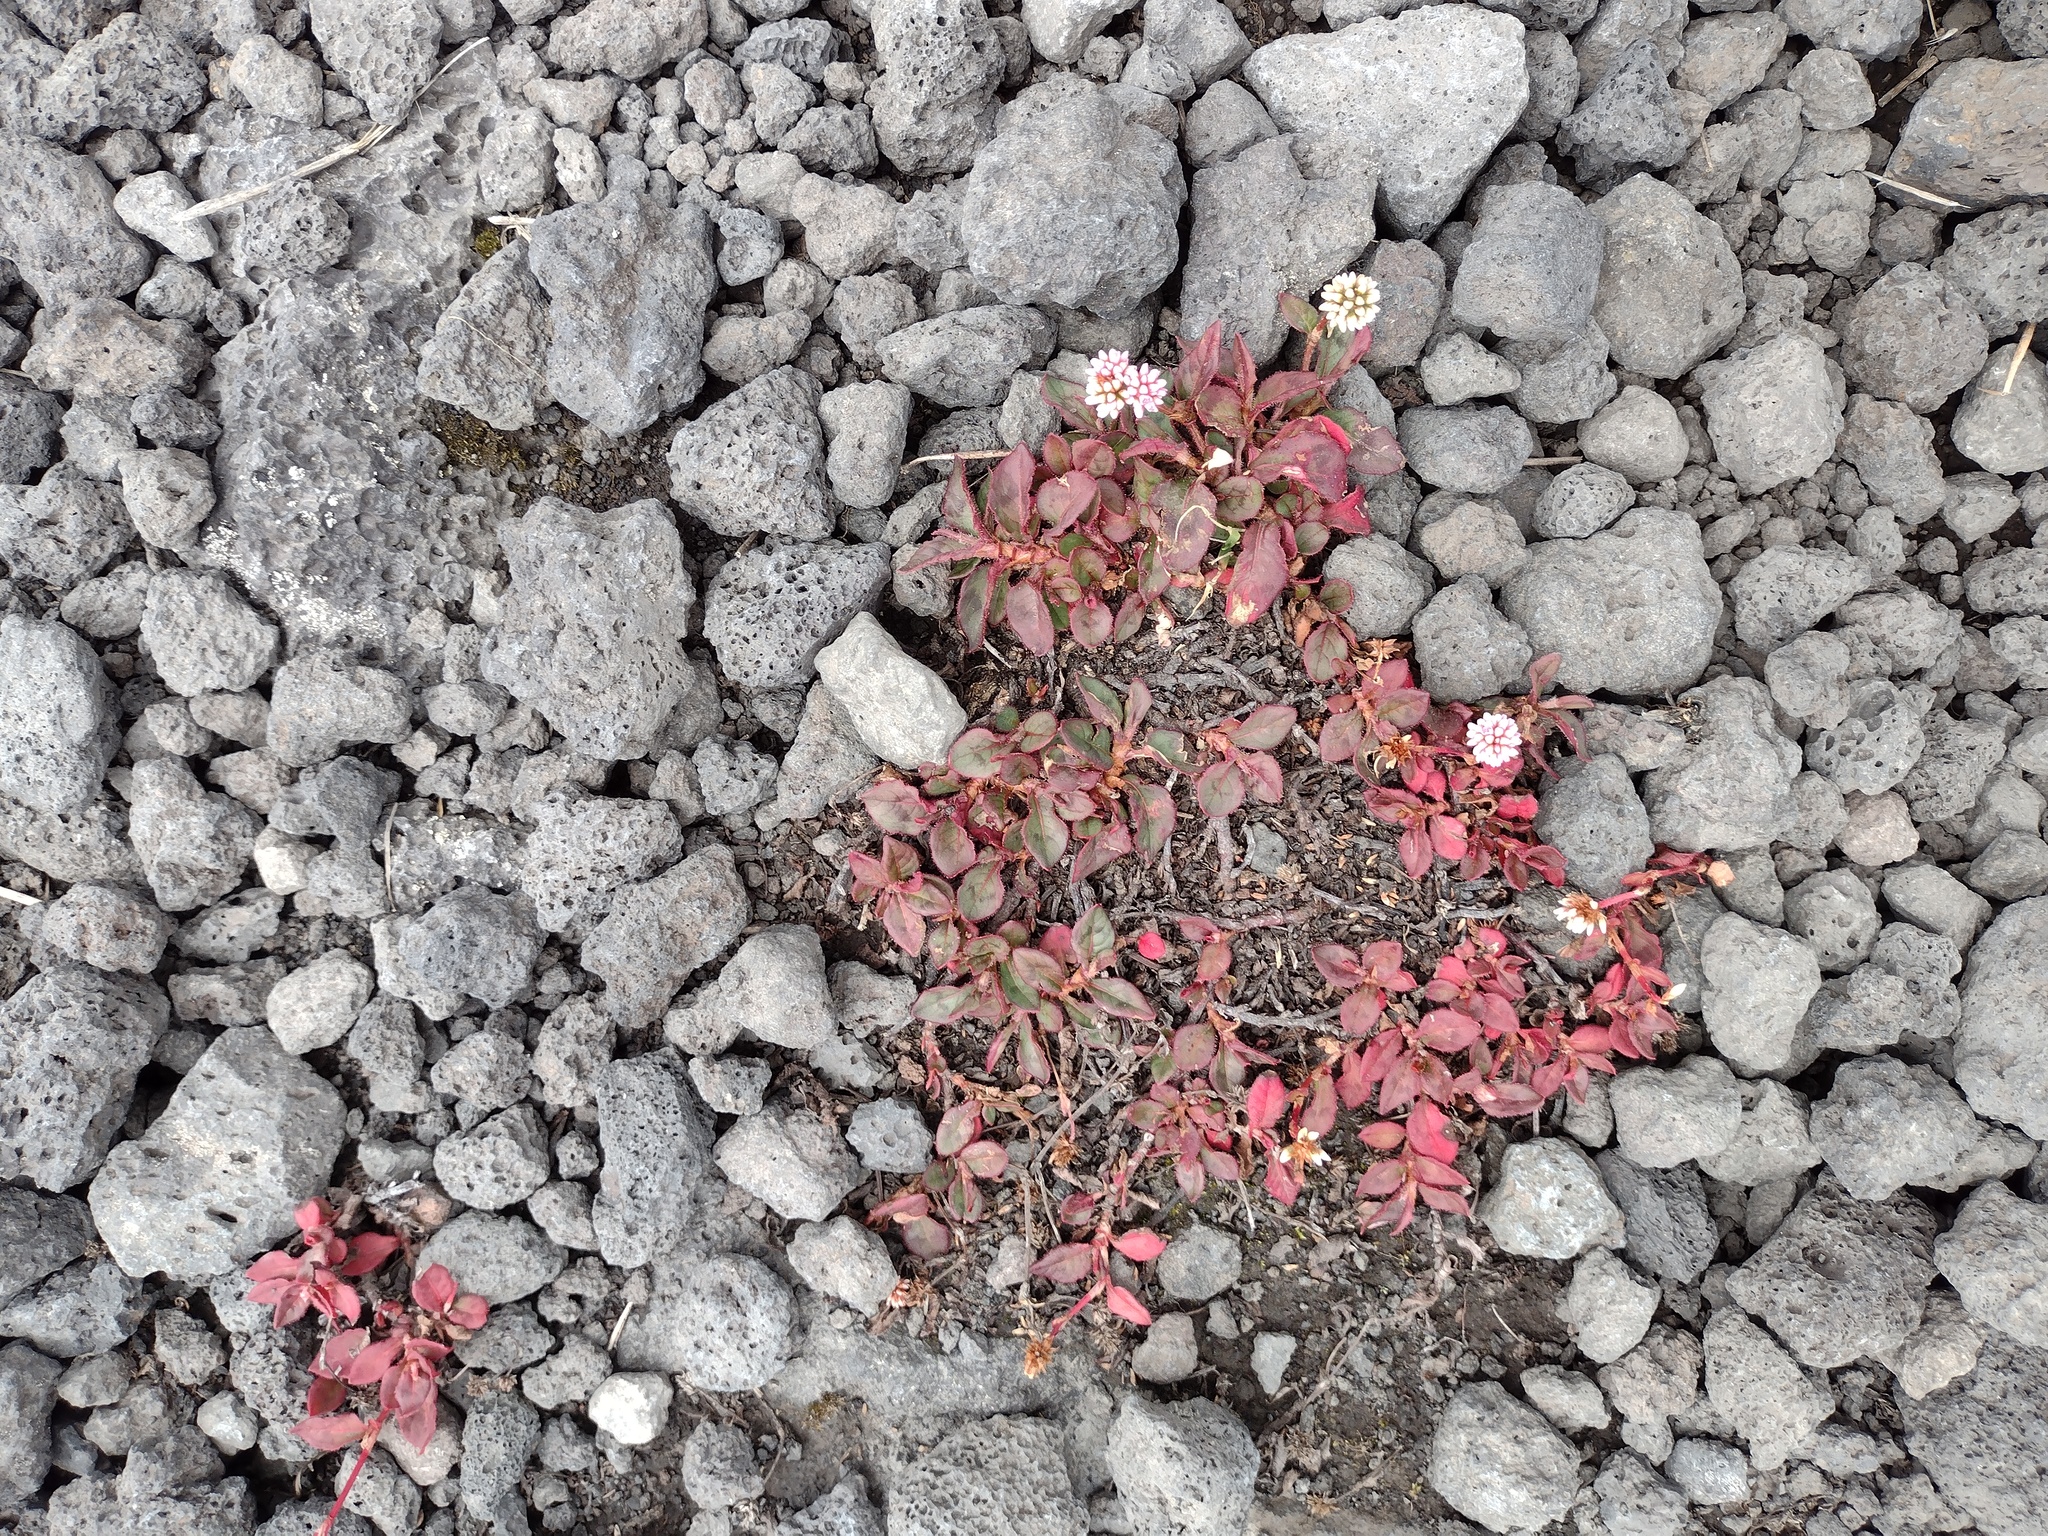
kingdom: Plantae
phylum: Tracheophyta
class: Magnoliopsida
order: Caryophyllales
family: Polygonaceae
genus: Persicaria
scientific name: Persicaria capitata
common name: Pinkhead smartweed
